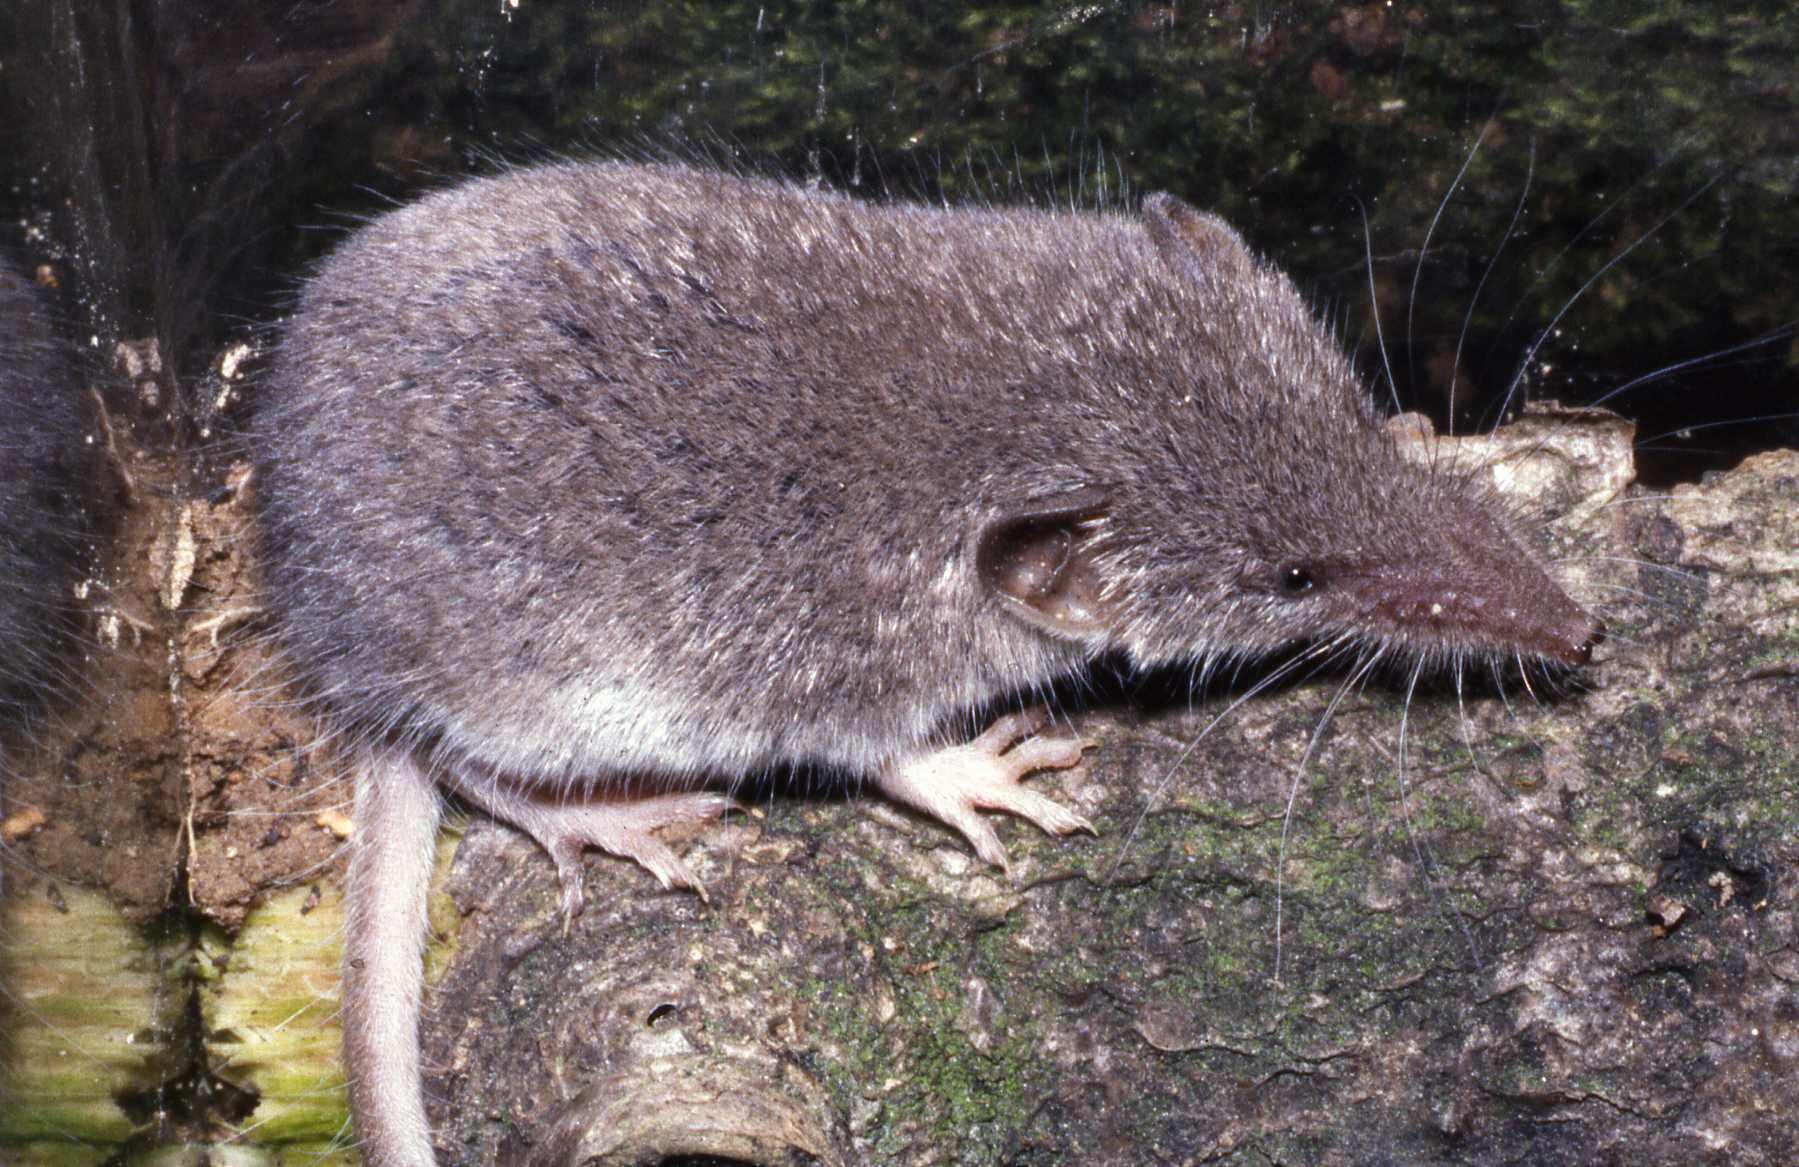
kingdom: Animalia
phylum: Chordata
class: Mammalia
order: Soricomorpha
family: Soricidae
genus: Crocidura
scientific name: Crocidura suaveolens
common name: Lesser white-toothed shrew
